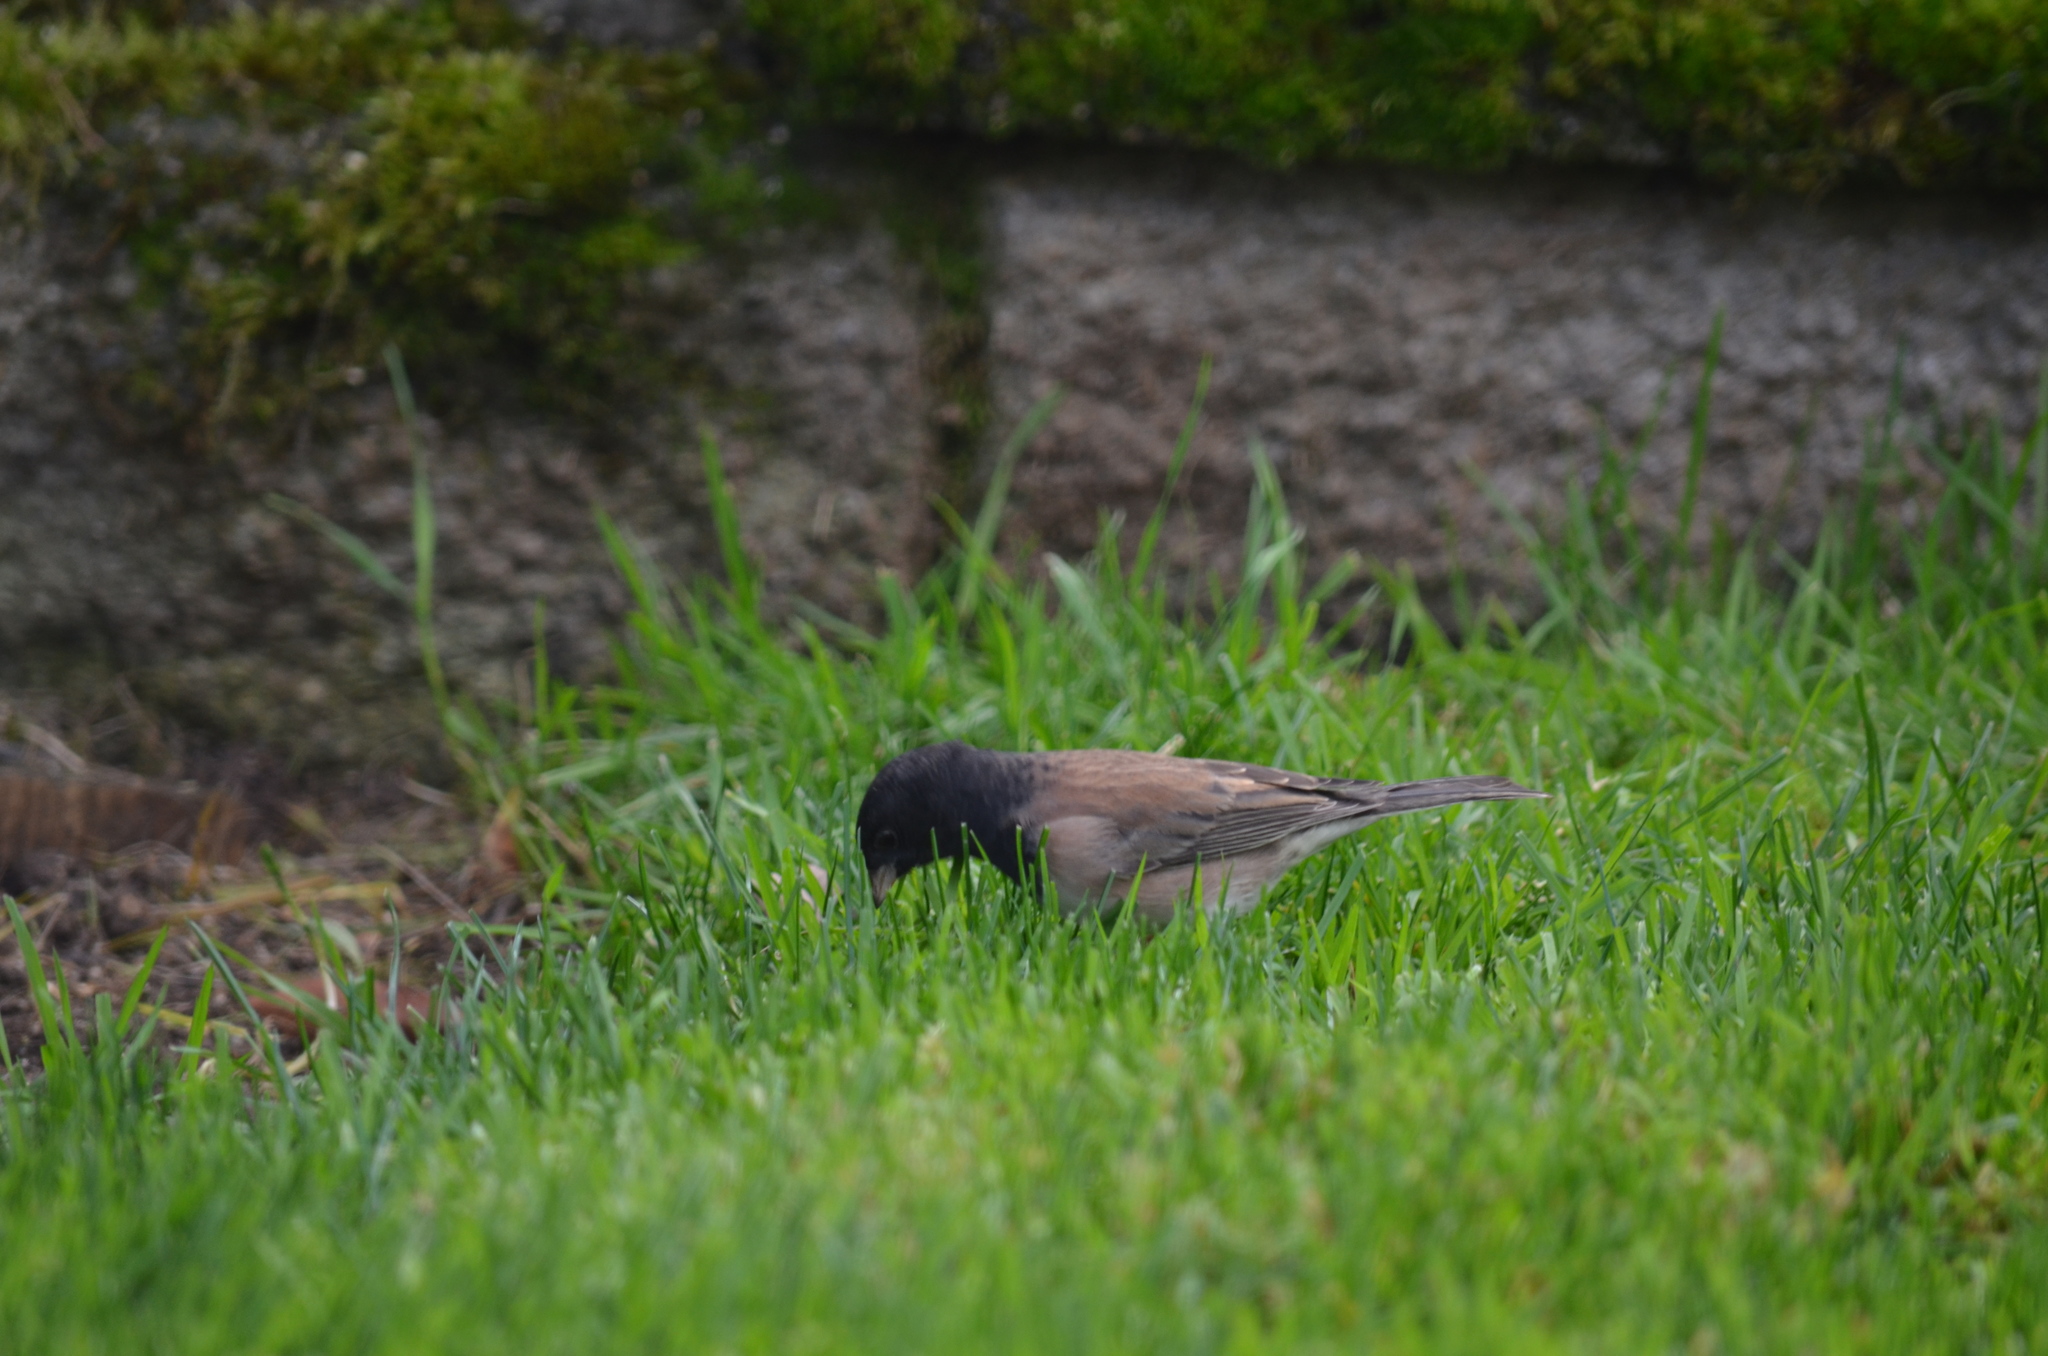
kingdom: Animalia
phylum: Chordata
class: Aves
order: Passeriformes
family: Passerellidae
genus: Junco
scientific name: Junco hyemalis
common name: Dark-eyed junco
